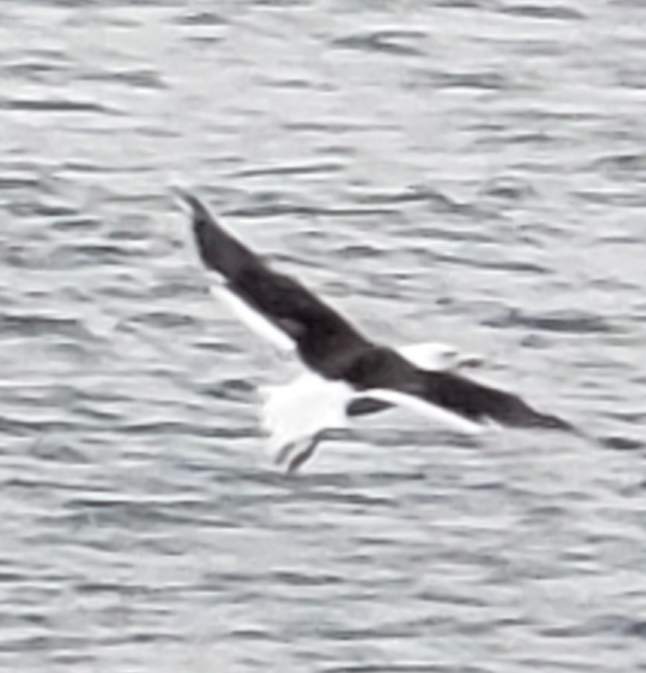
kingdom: Animalia
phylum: Chordata
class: Aves
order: Charadriiformes
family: Laridae
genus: Larus
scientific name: Larus marinus
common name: Great black-backed gull
